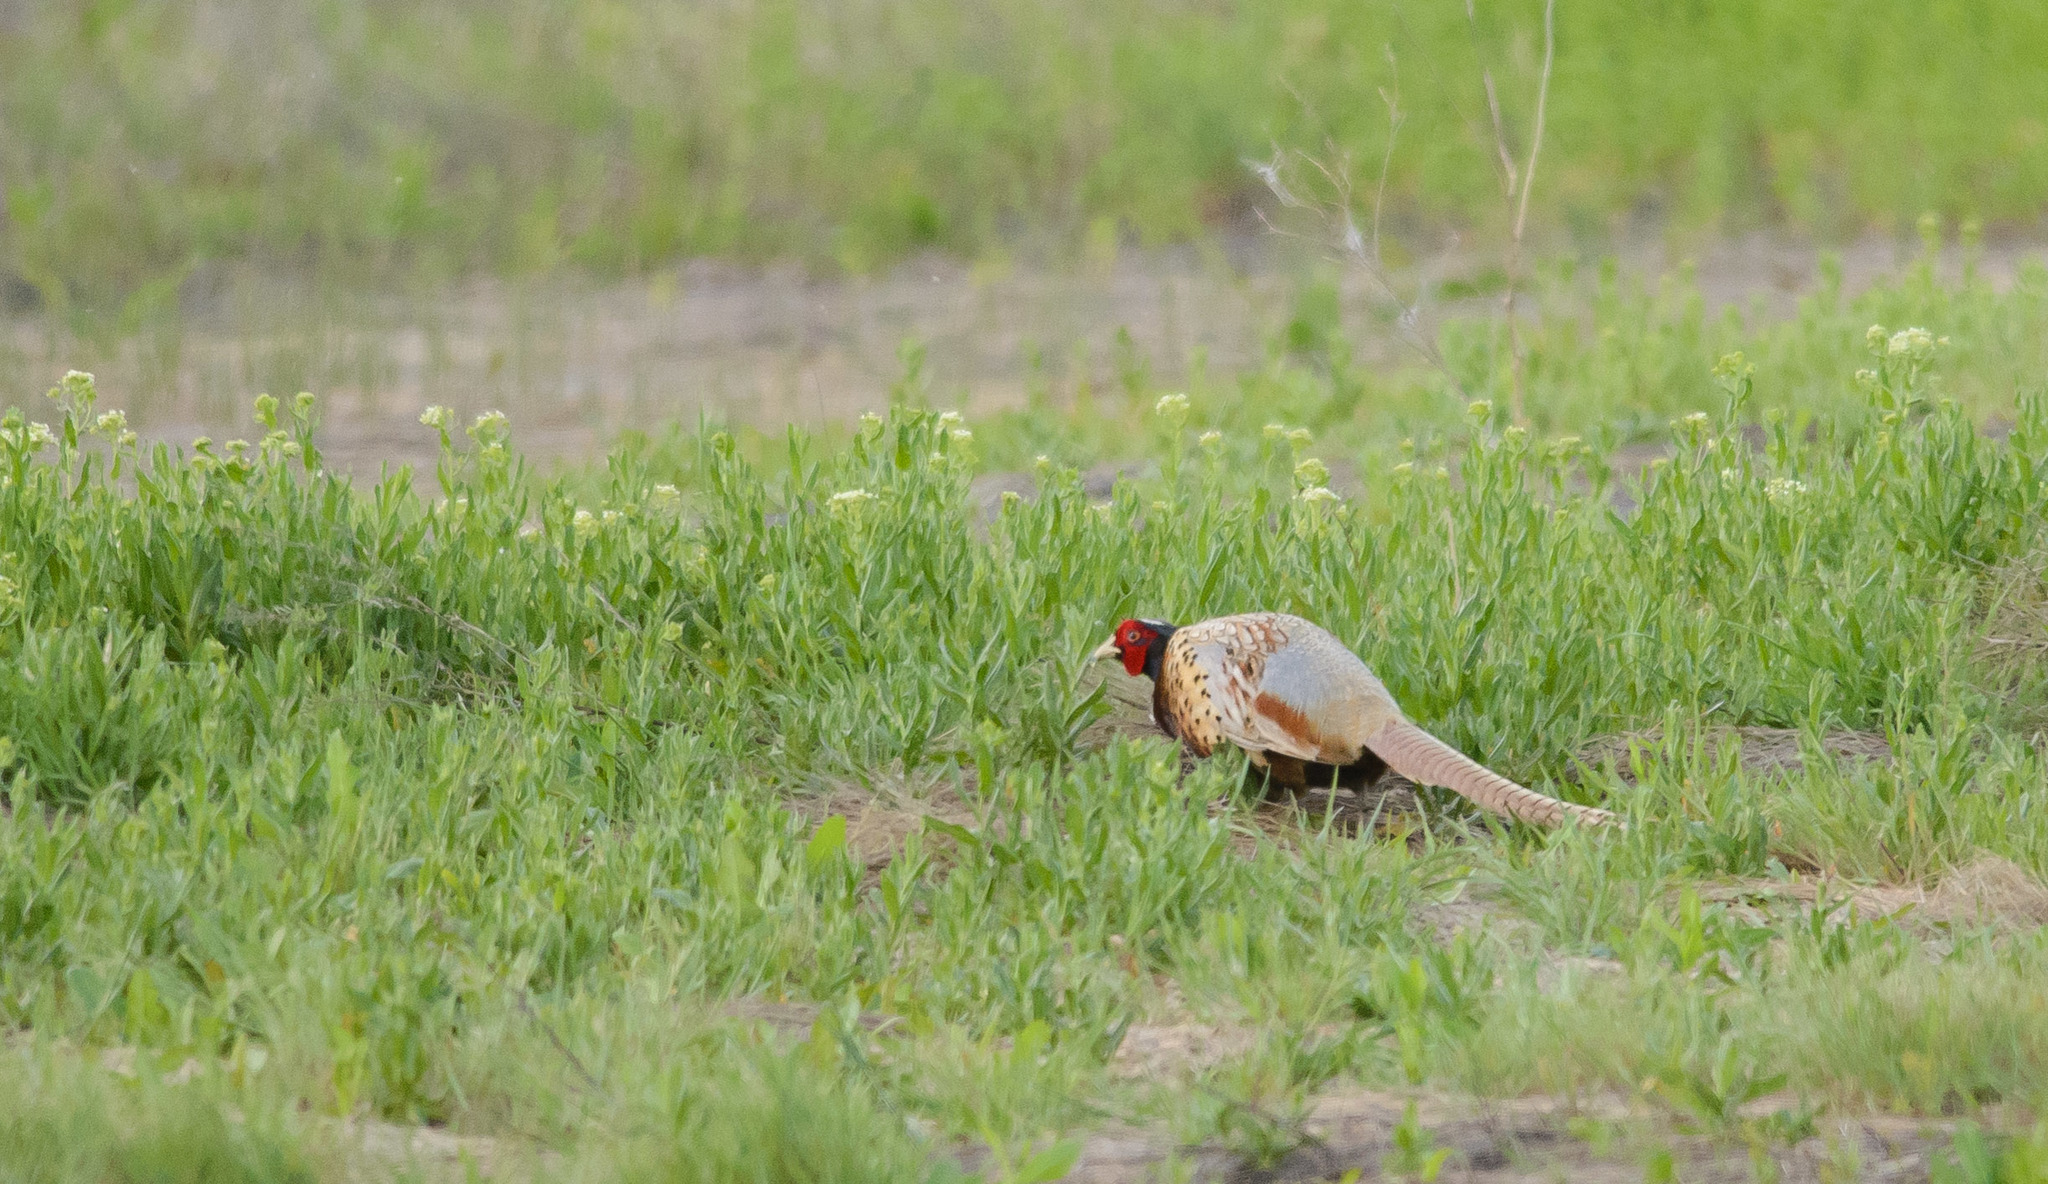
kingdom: Animalia
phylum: Chordata
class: Aves
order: Galliformes
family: Phasianidae
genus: Phasianus
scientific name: Phasianus colchicus
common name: Common pheasant
